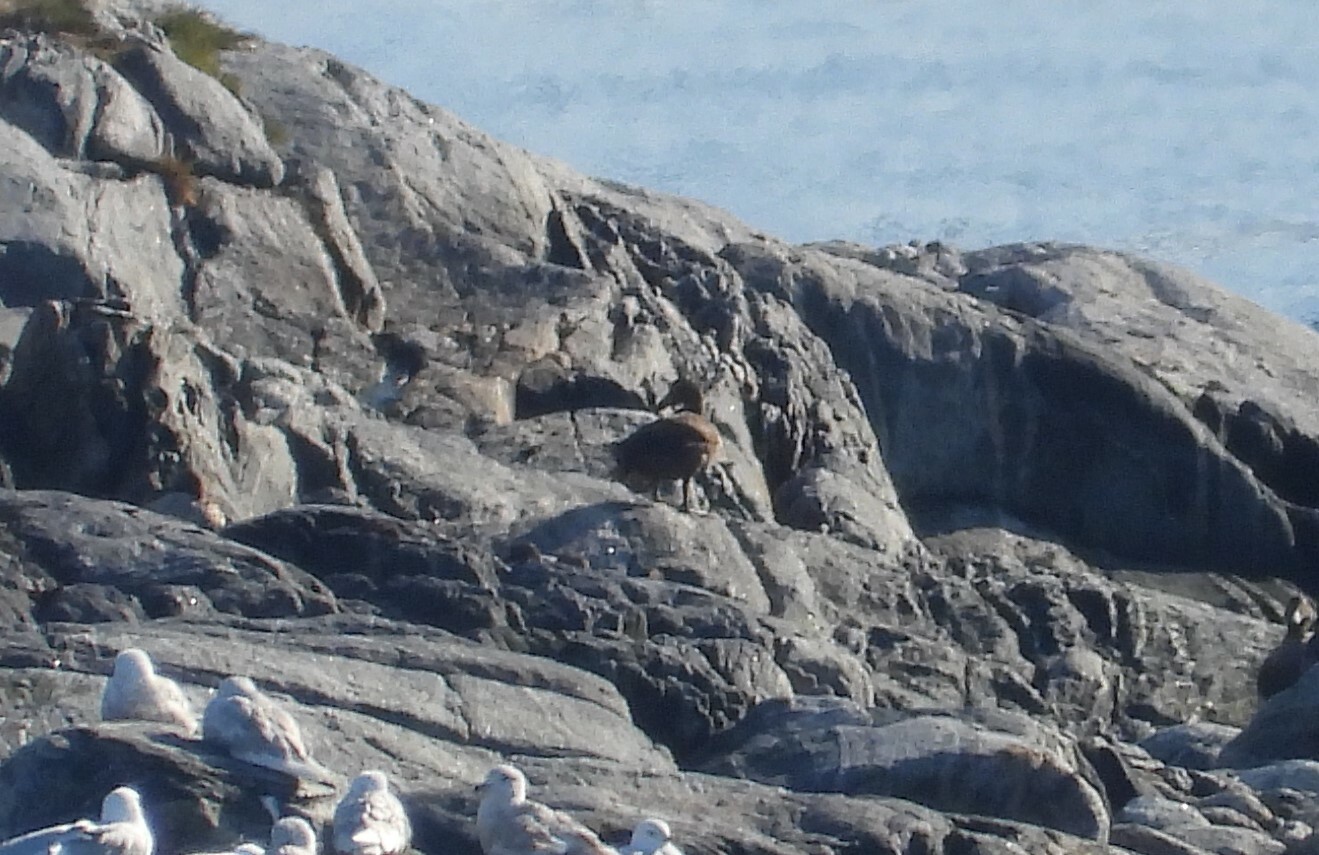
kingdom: Animalia
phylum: Chordata
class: Aves
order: Anseriformes
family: Anatidae
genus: Somateria
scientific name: Somateria mollissima
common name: Common eider
